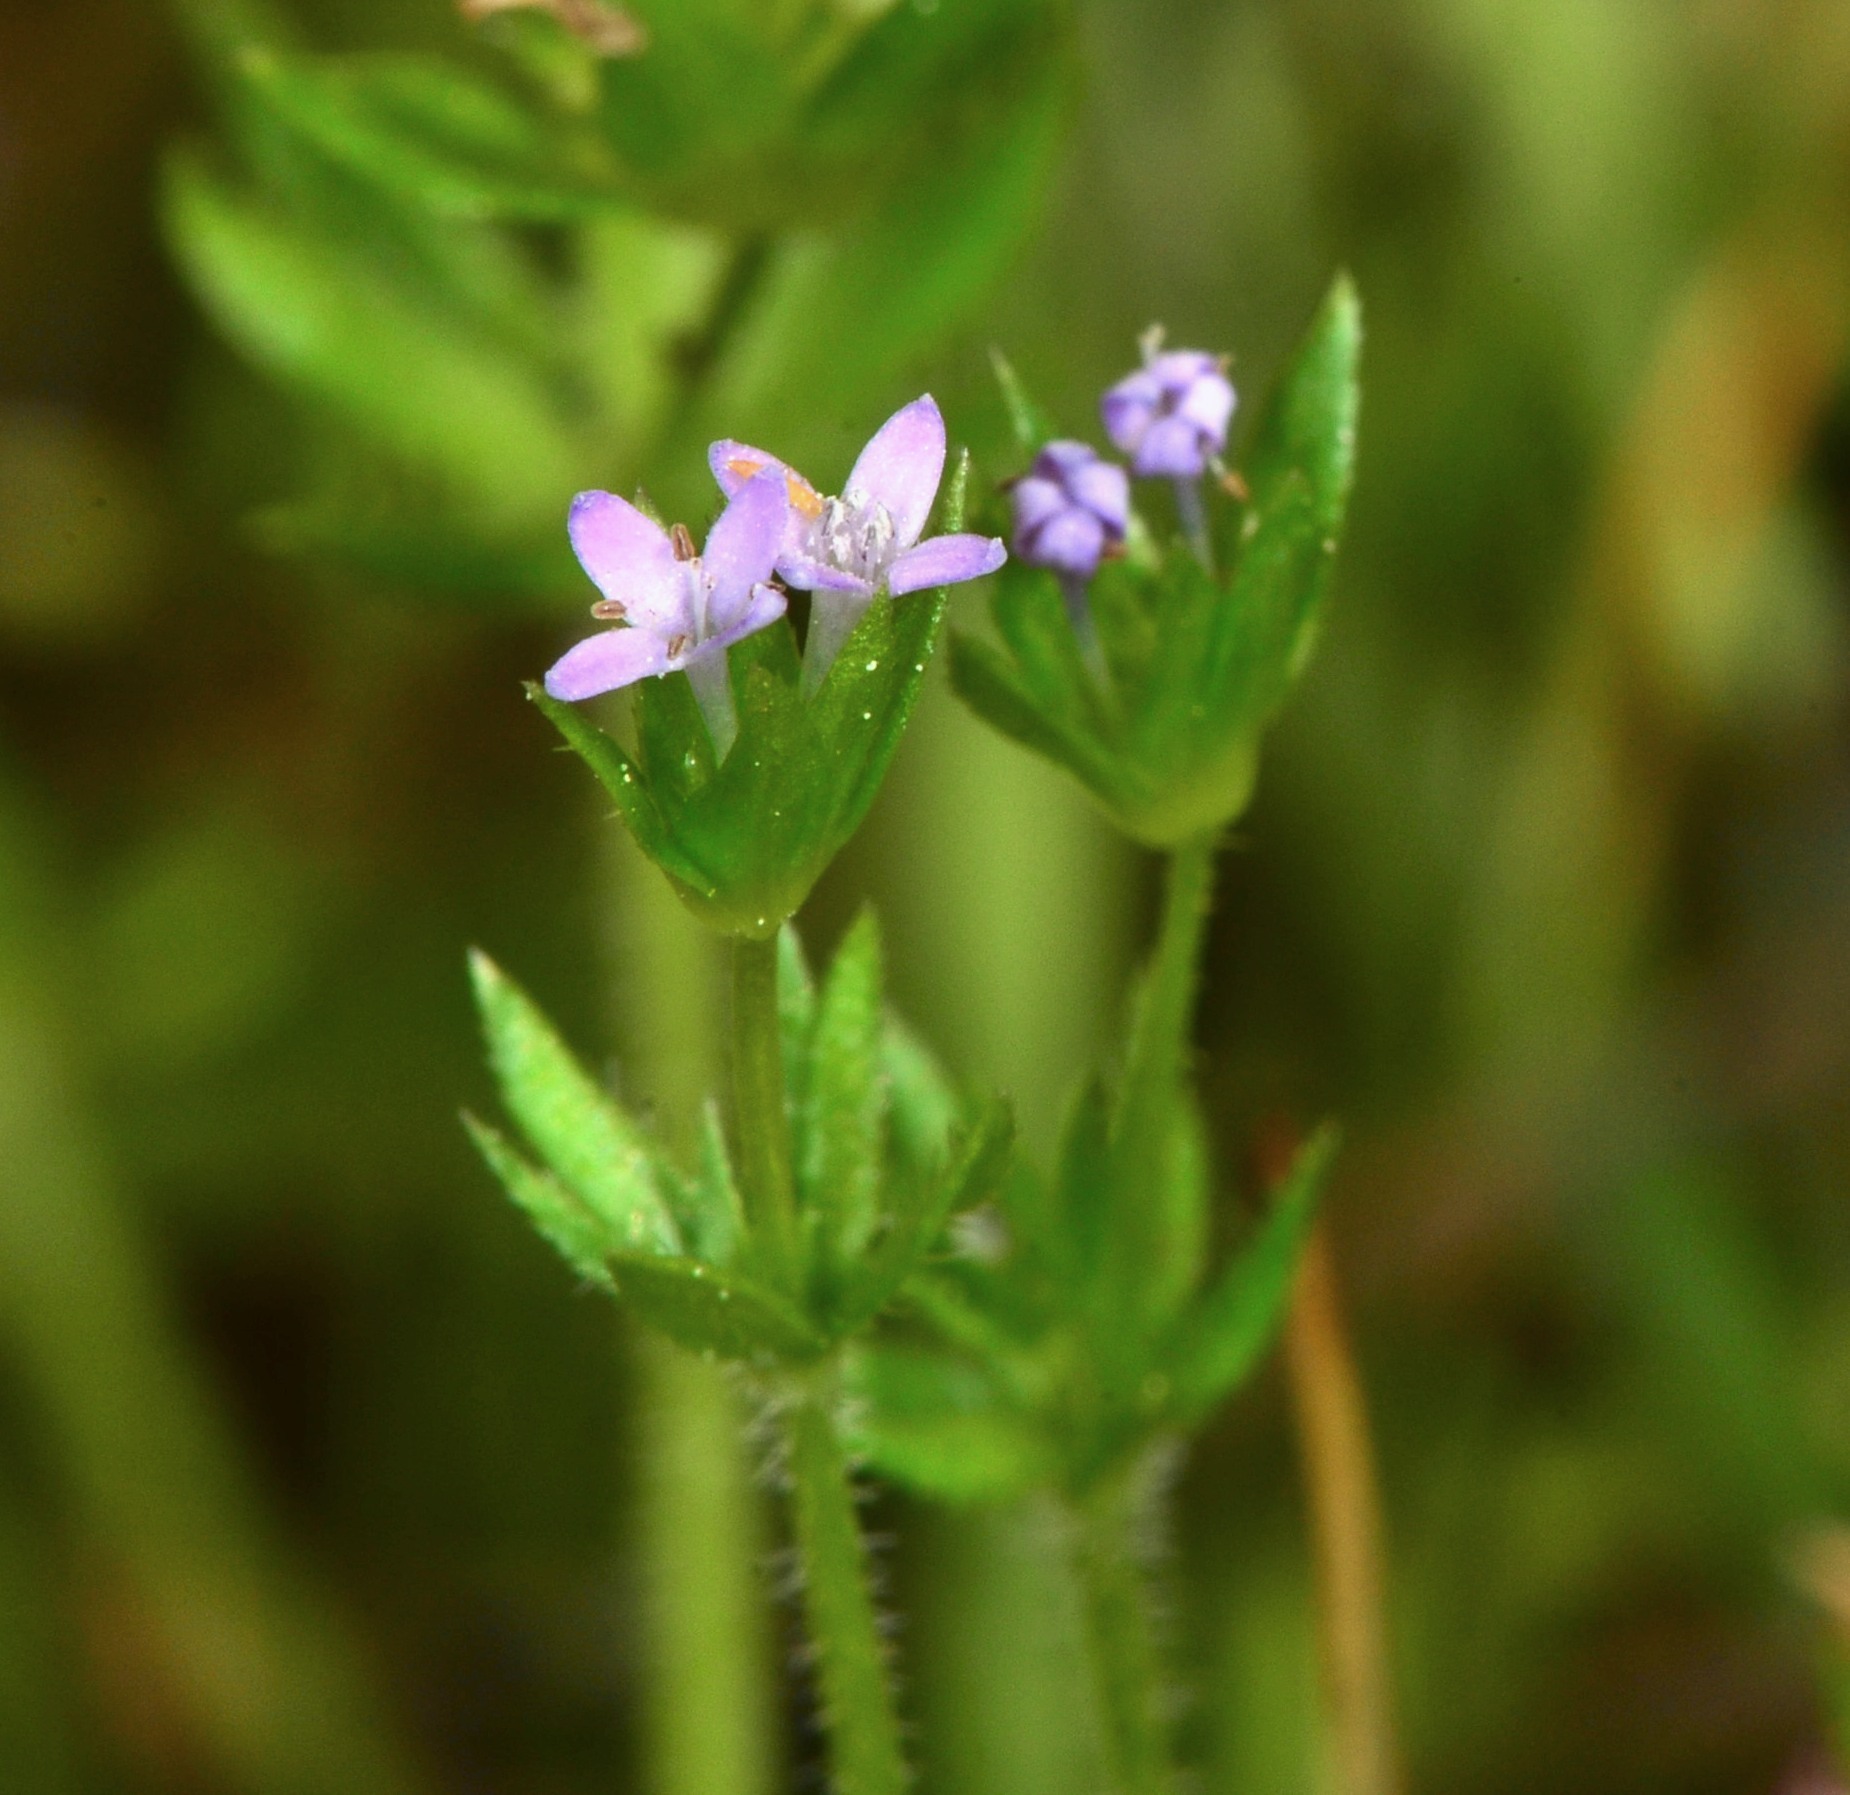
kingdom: Plantae
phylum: Tracheophyta
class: Magnoliopsida
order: Gentianales
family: Rubiaceae
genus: Sherardia
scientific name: Sherardia arvensis
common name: Field madder
